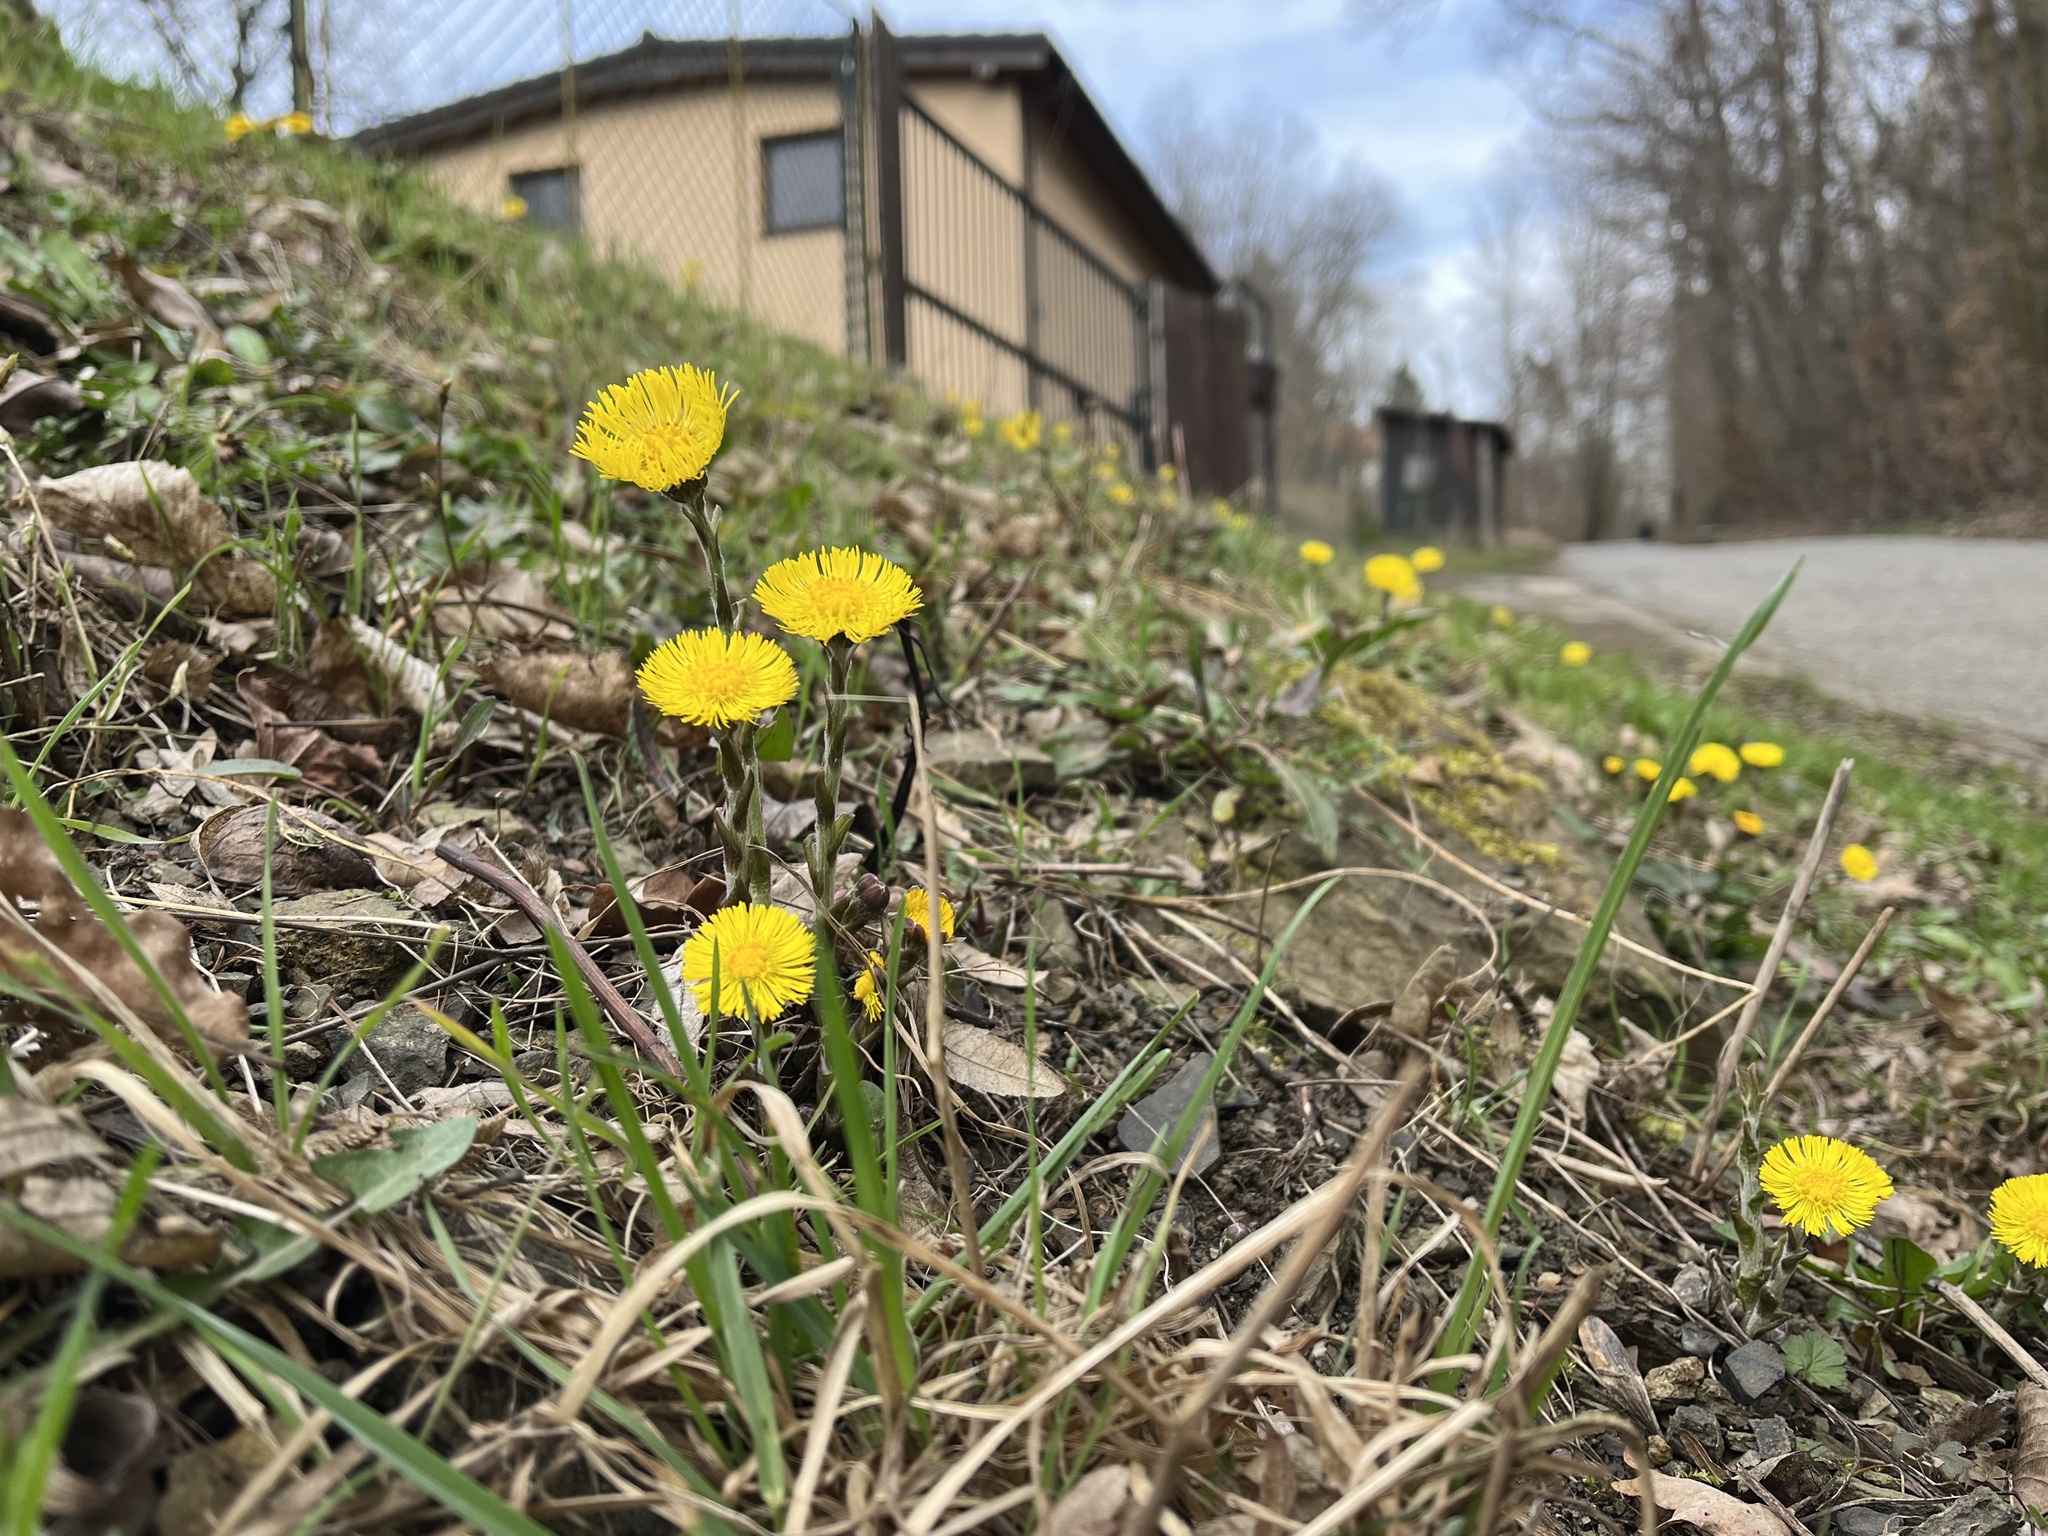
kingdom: Plantae
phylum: Tracheophyta
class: Magnoliopsida
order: Asterales
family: Asteraceae
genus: Tussilago
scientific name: Tussilago farfara
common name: Coltsfoot
